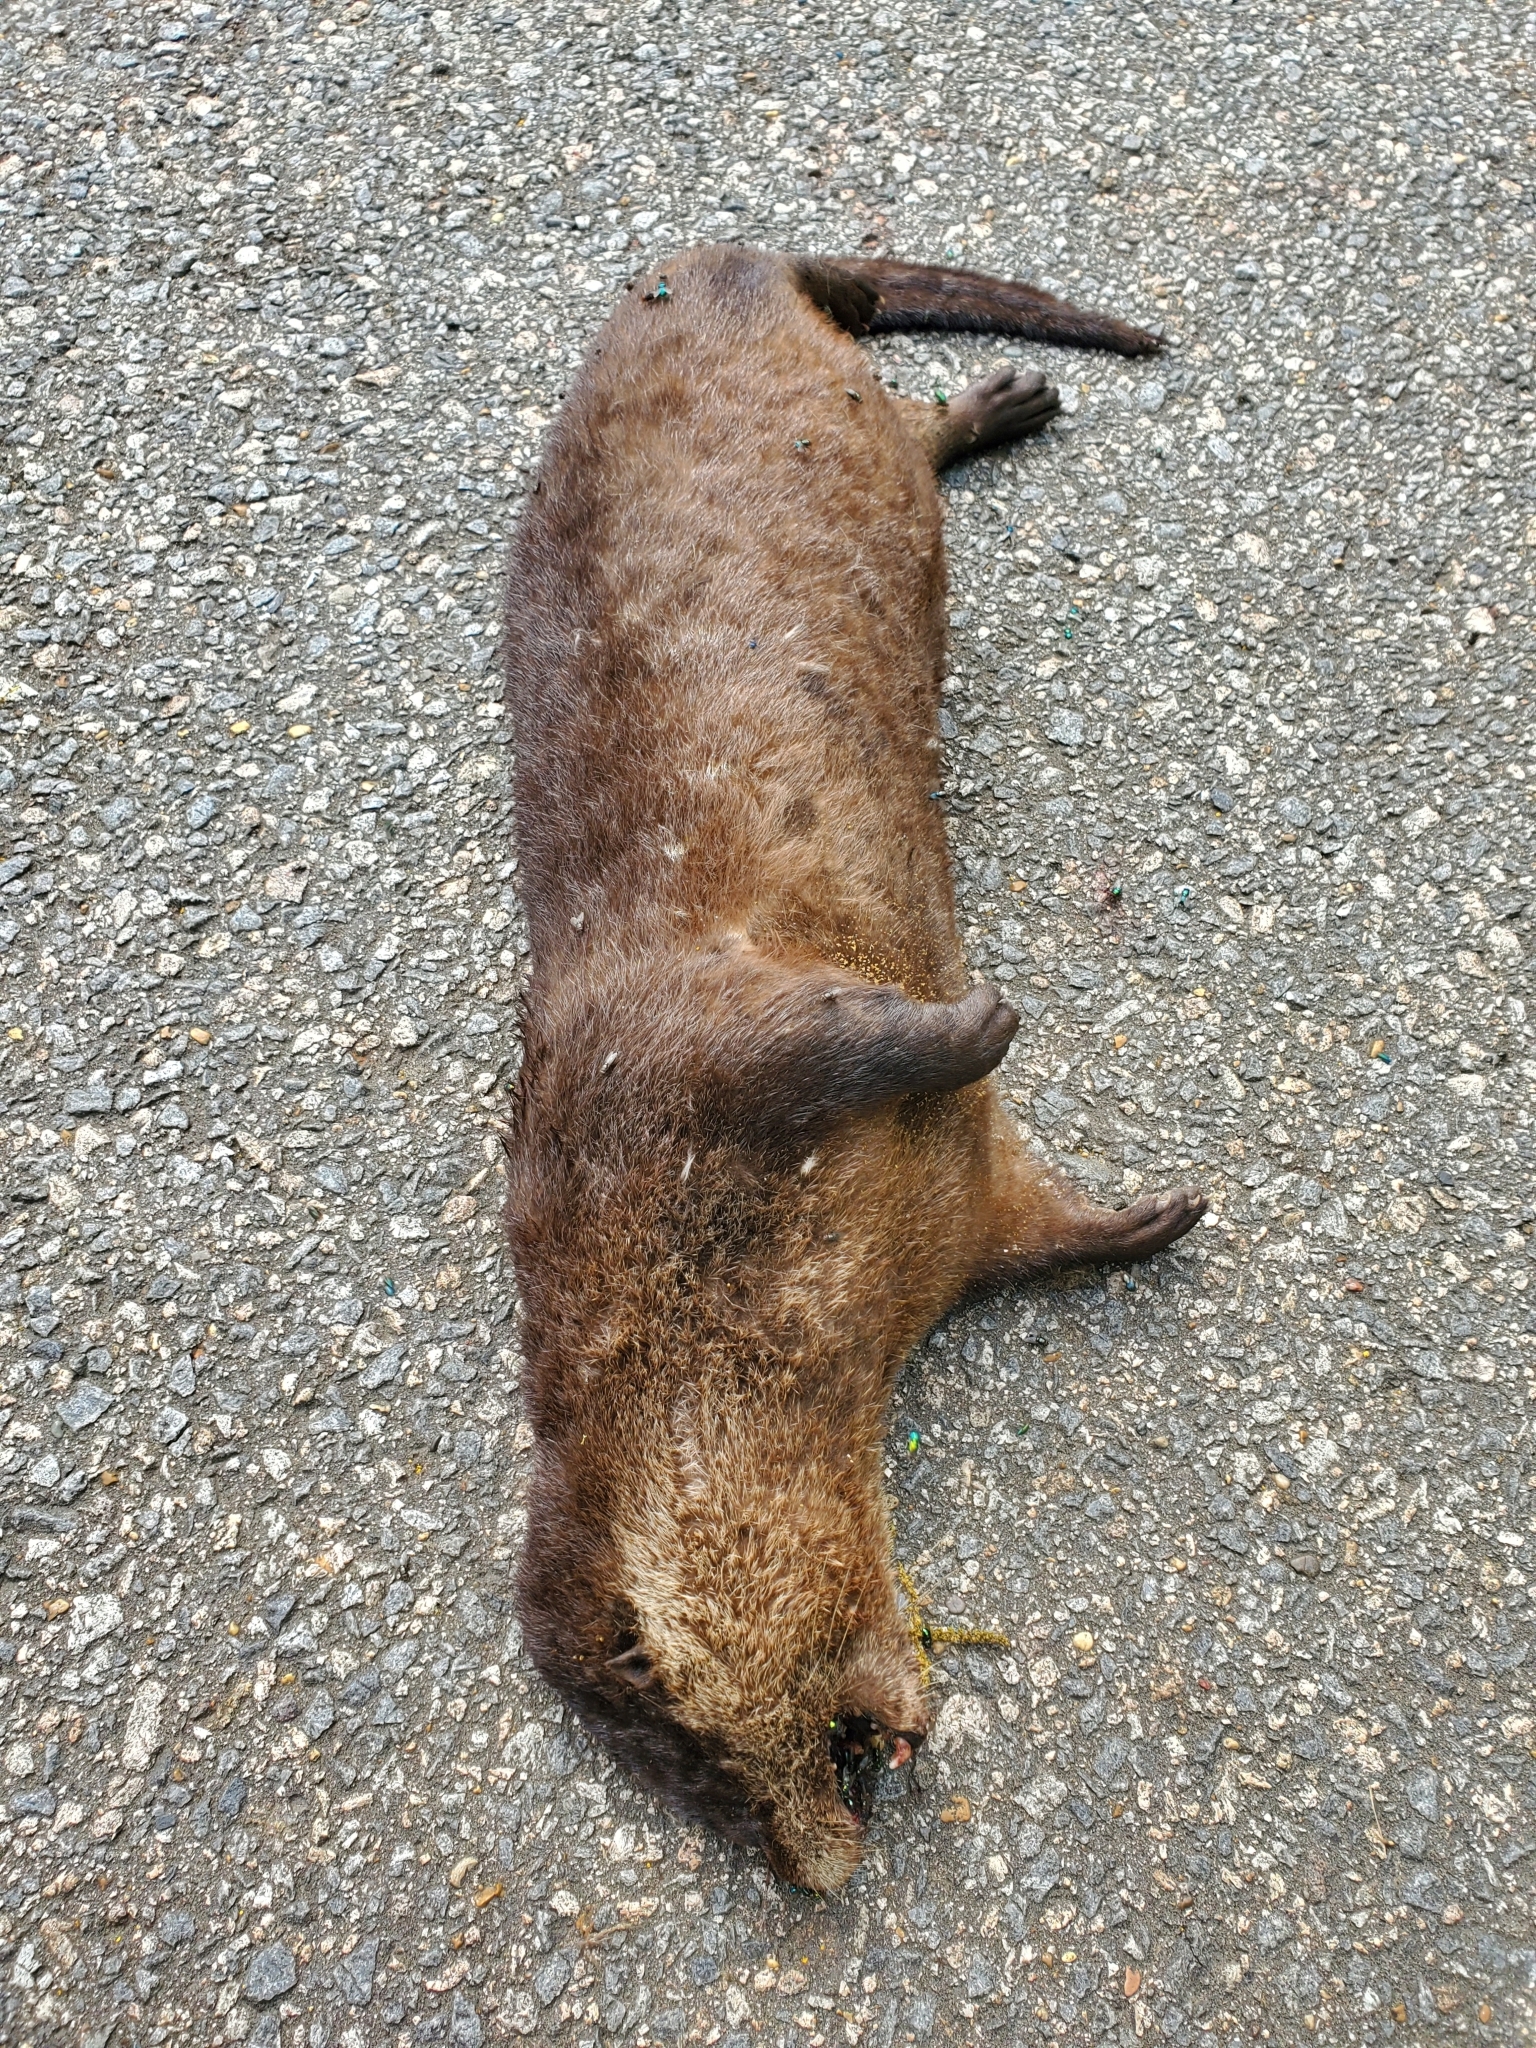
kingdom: Animalia
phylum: Chordata
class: Mammalia
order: Carnivora
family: Mustelidae
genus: Lontra
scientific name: Lontra canadensis
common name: North american river otter
